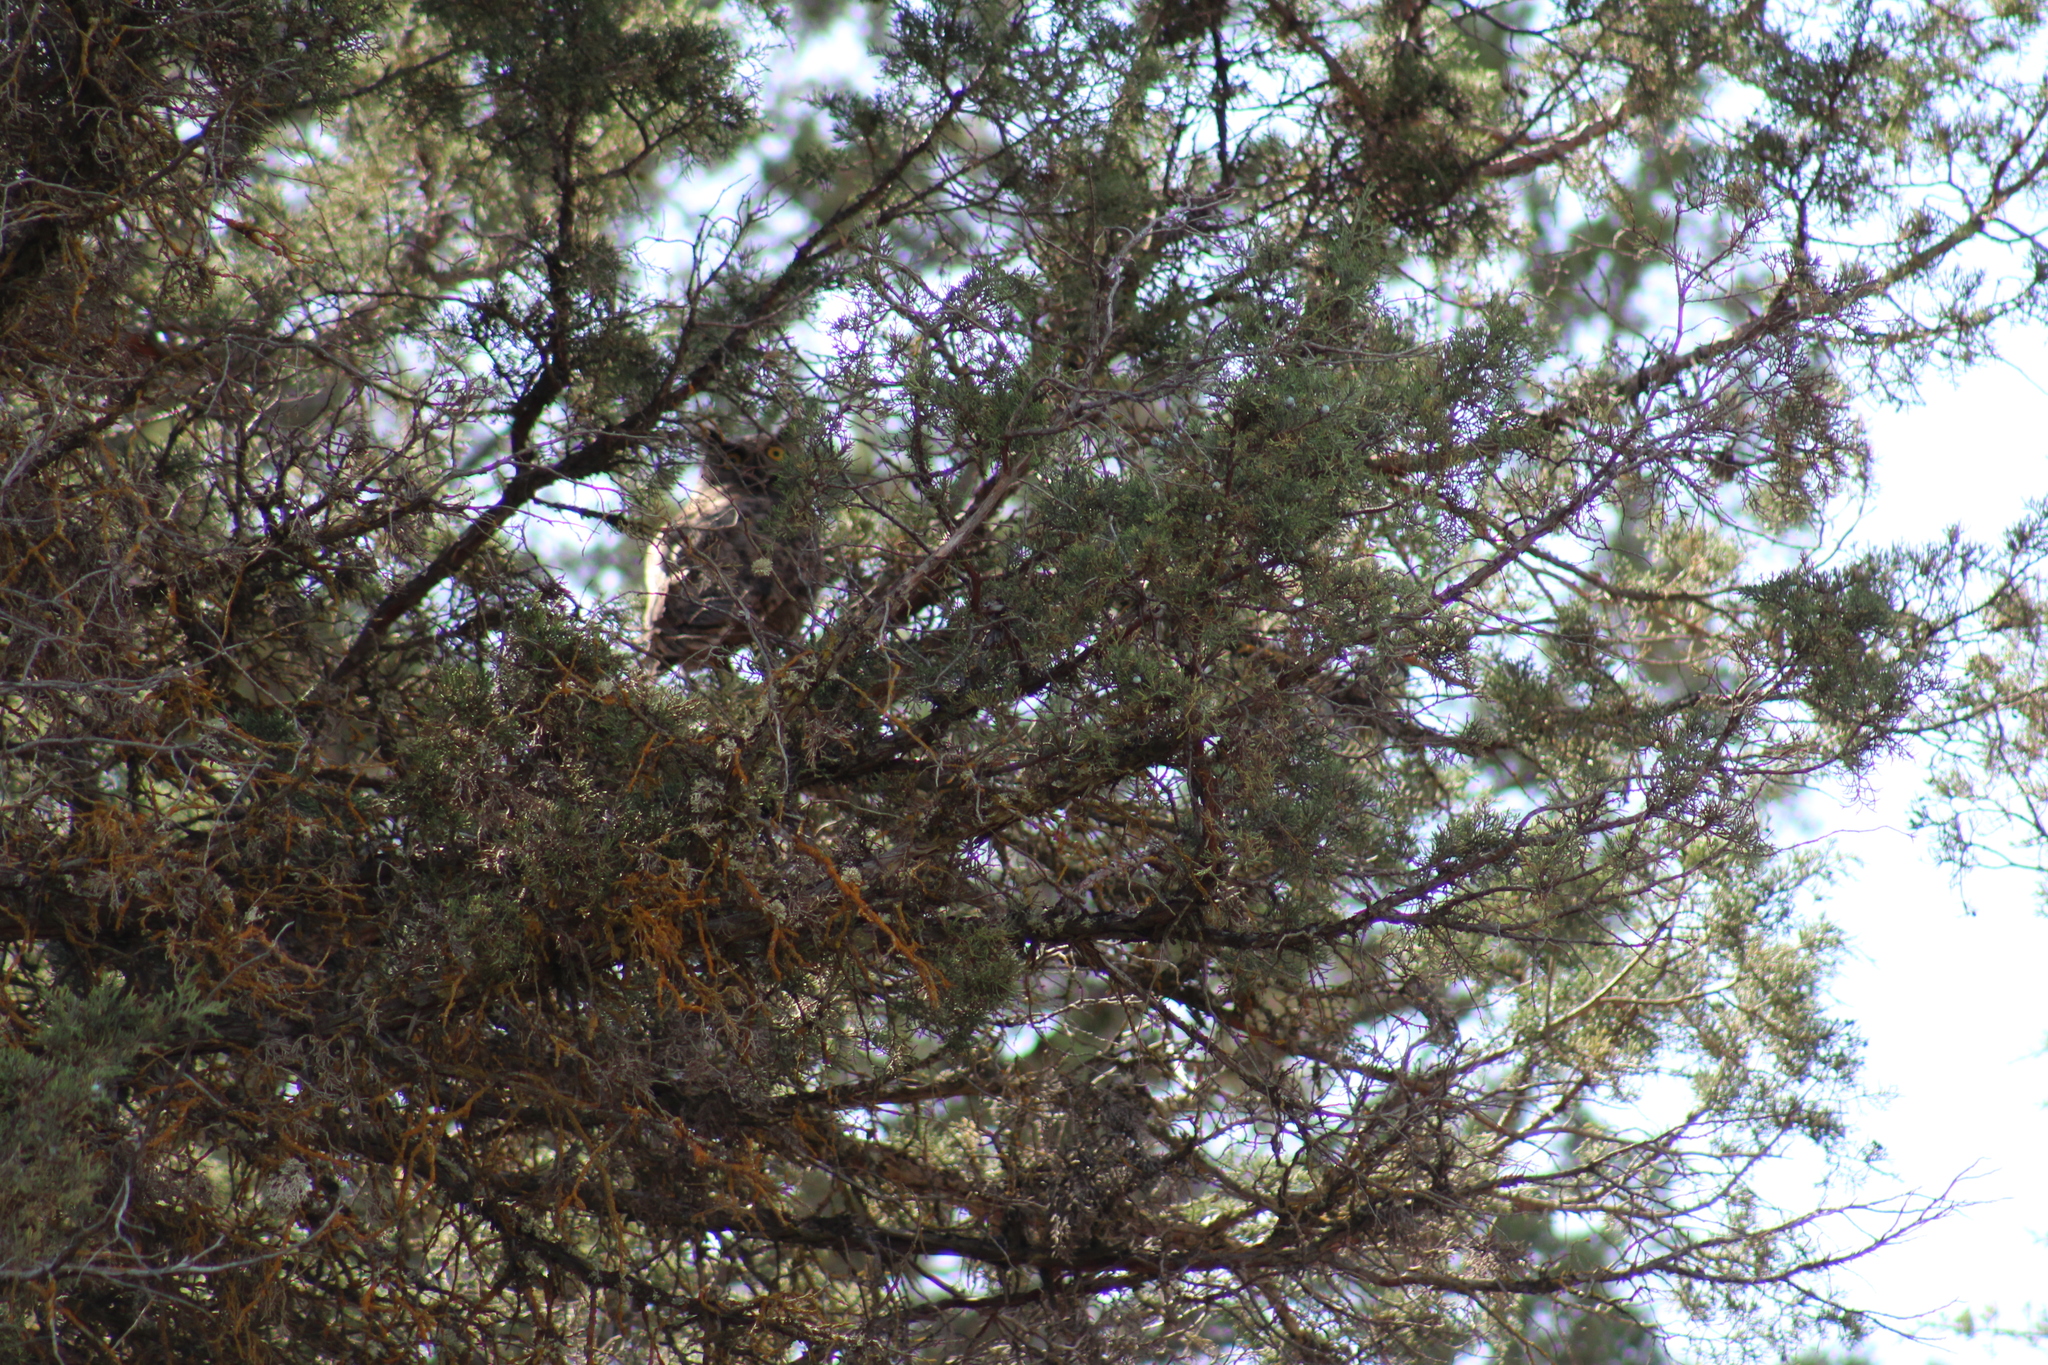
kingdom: Animalia
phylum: Chordata
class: Aves
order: Strigiformes
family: Strigidae
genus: Bubo
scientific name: Bubo virginianus
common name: Great horned owl
